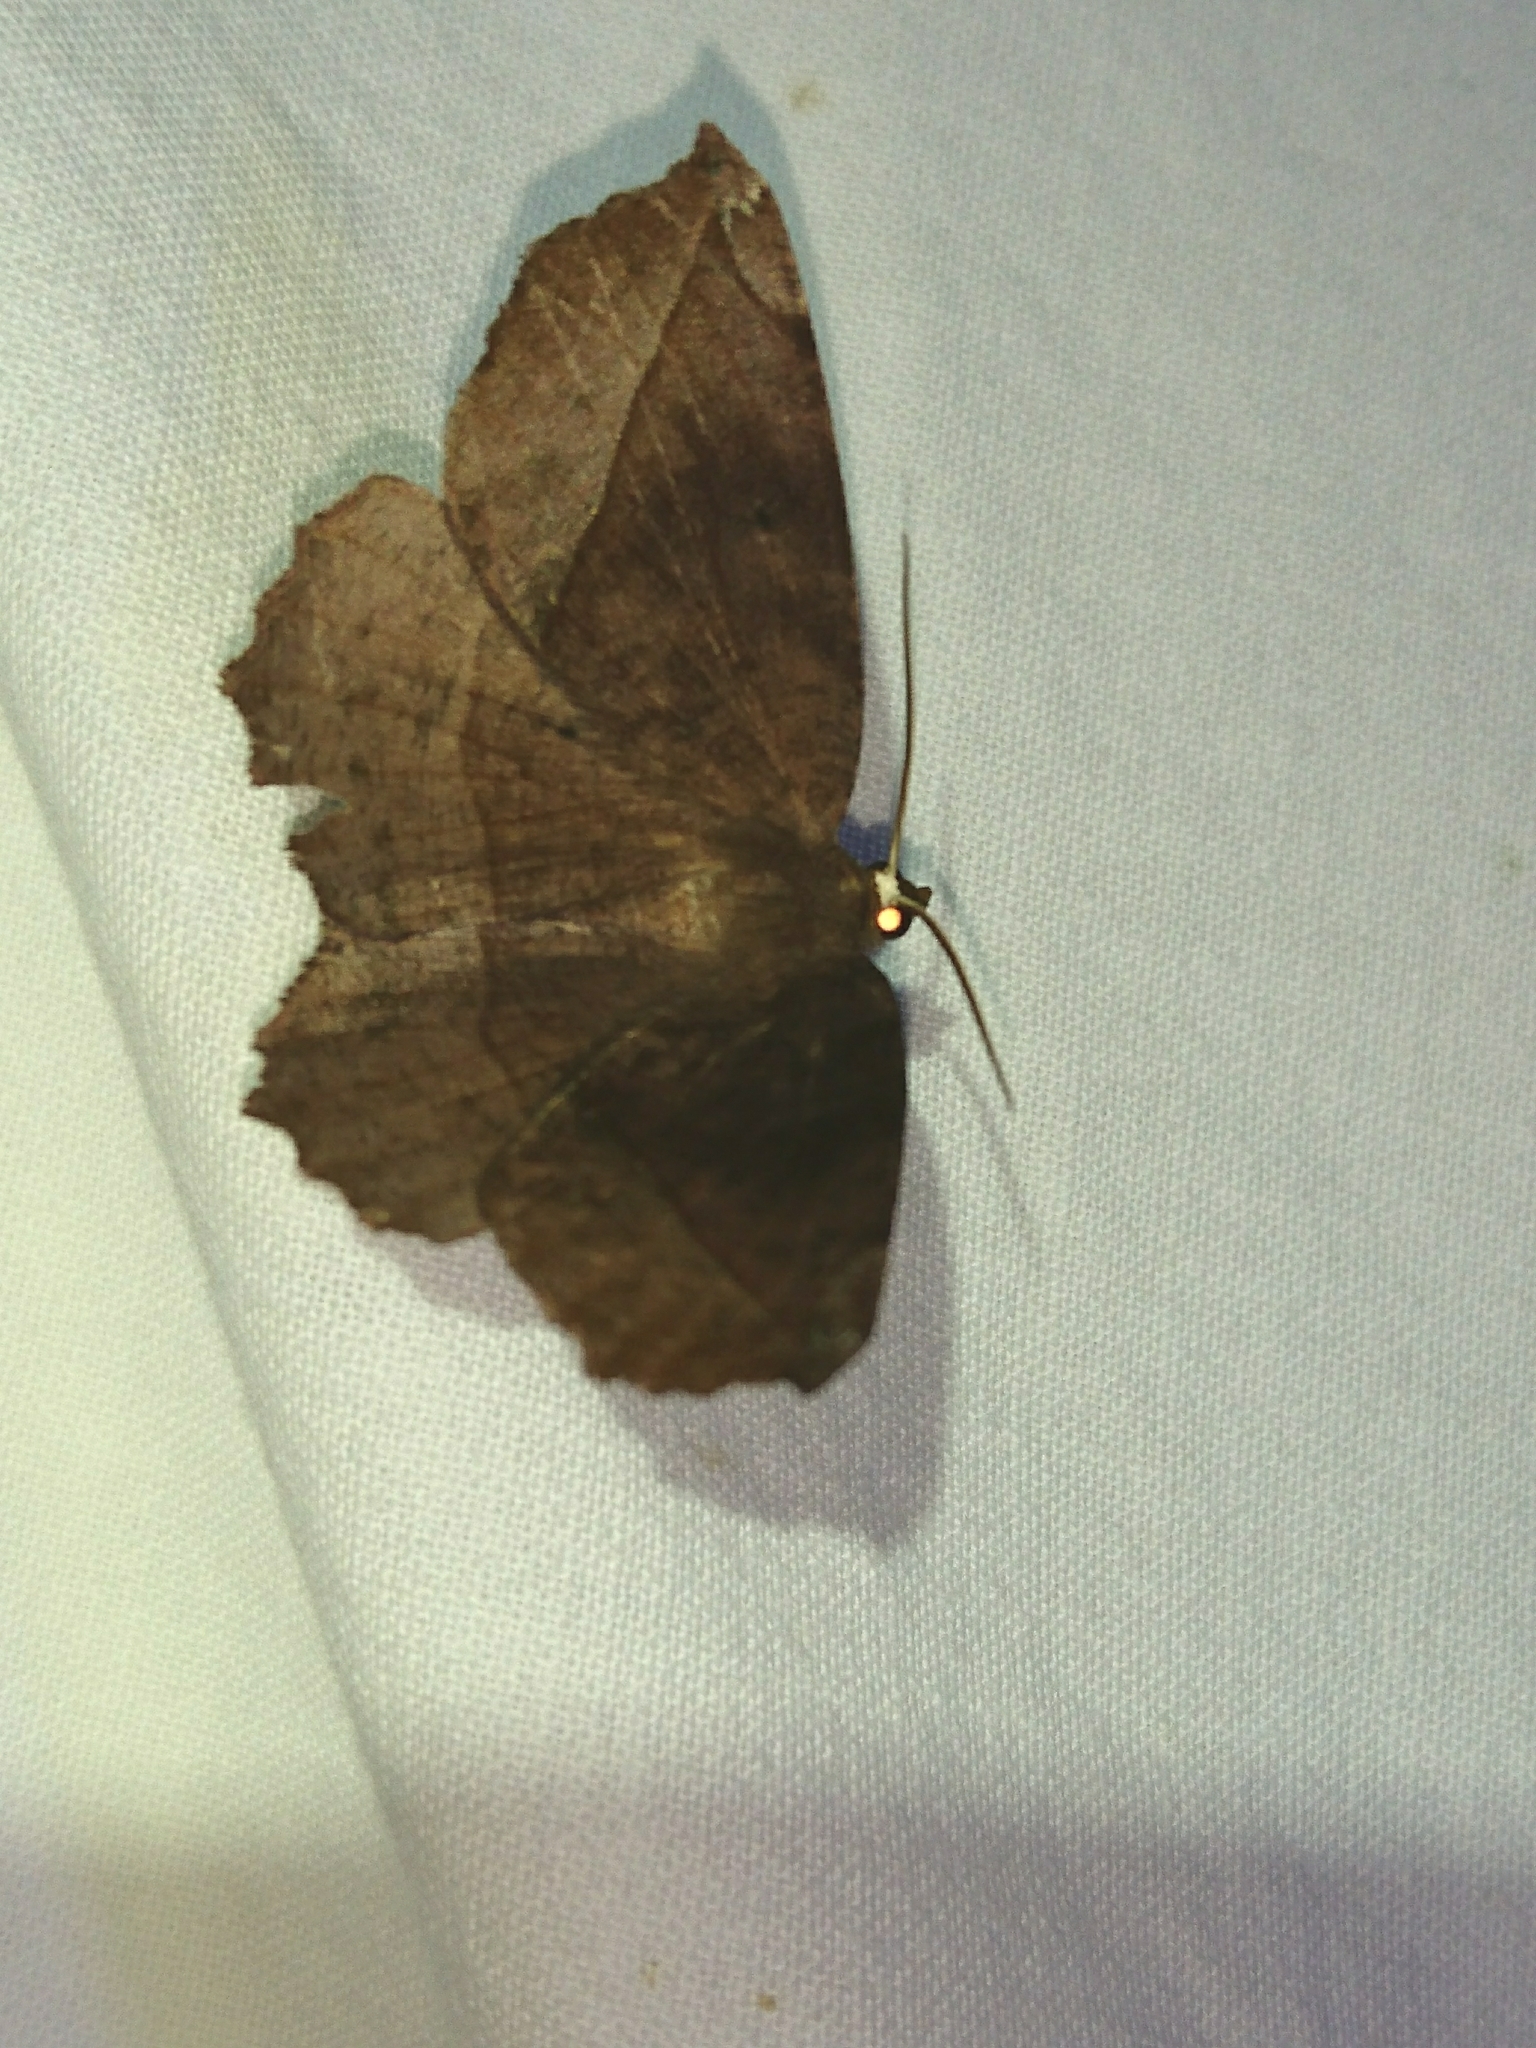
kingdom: Animalia
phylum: Arthropoda
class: Insecta
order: Lepidoptera
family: Geometridae
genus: Eutrapela
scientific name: Eutrapela clemataria
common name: Curved-toothed geometer
